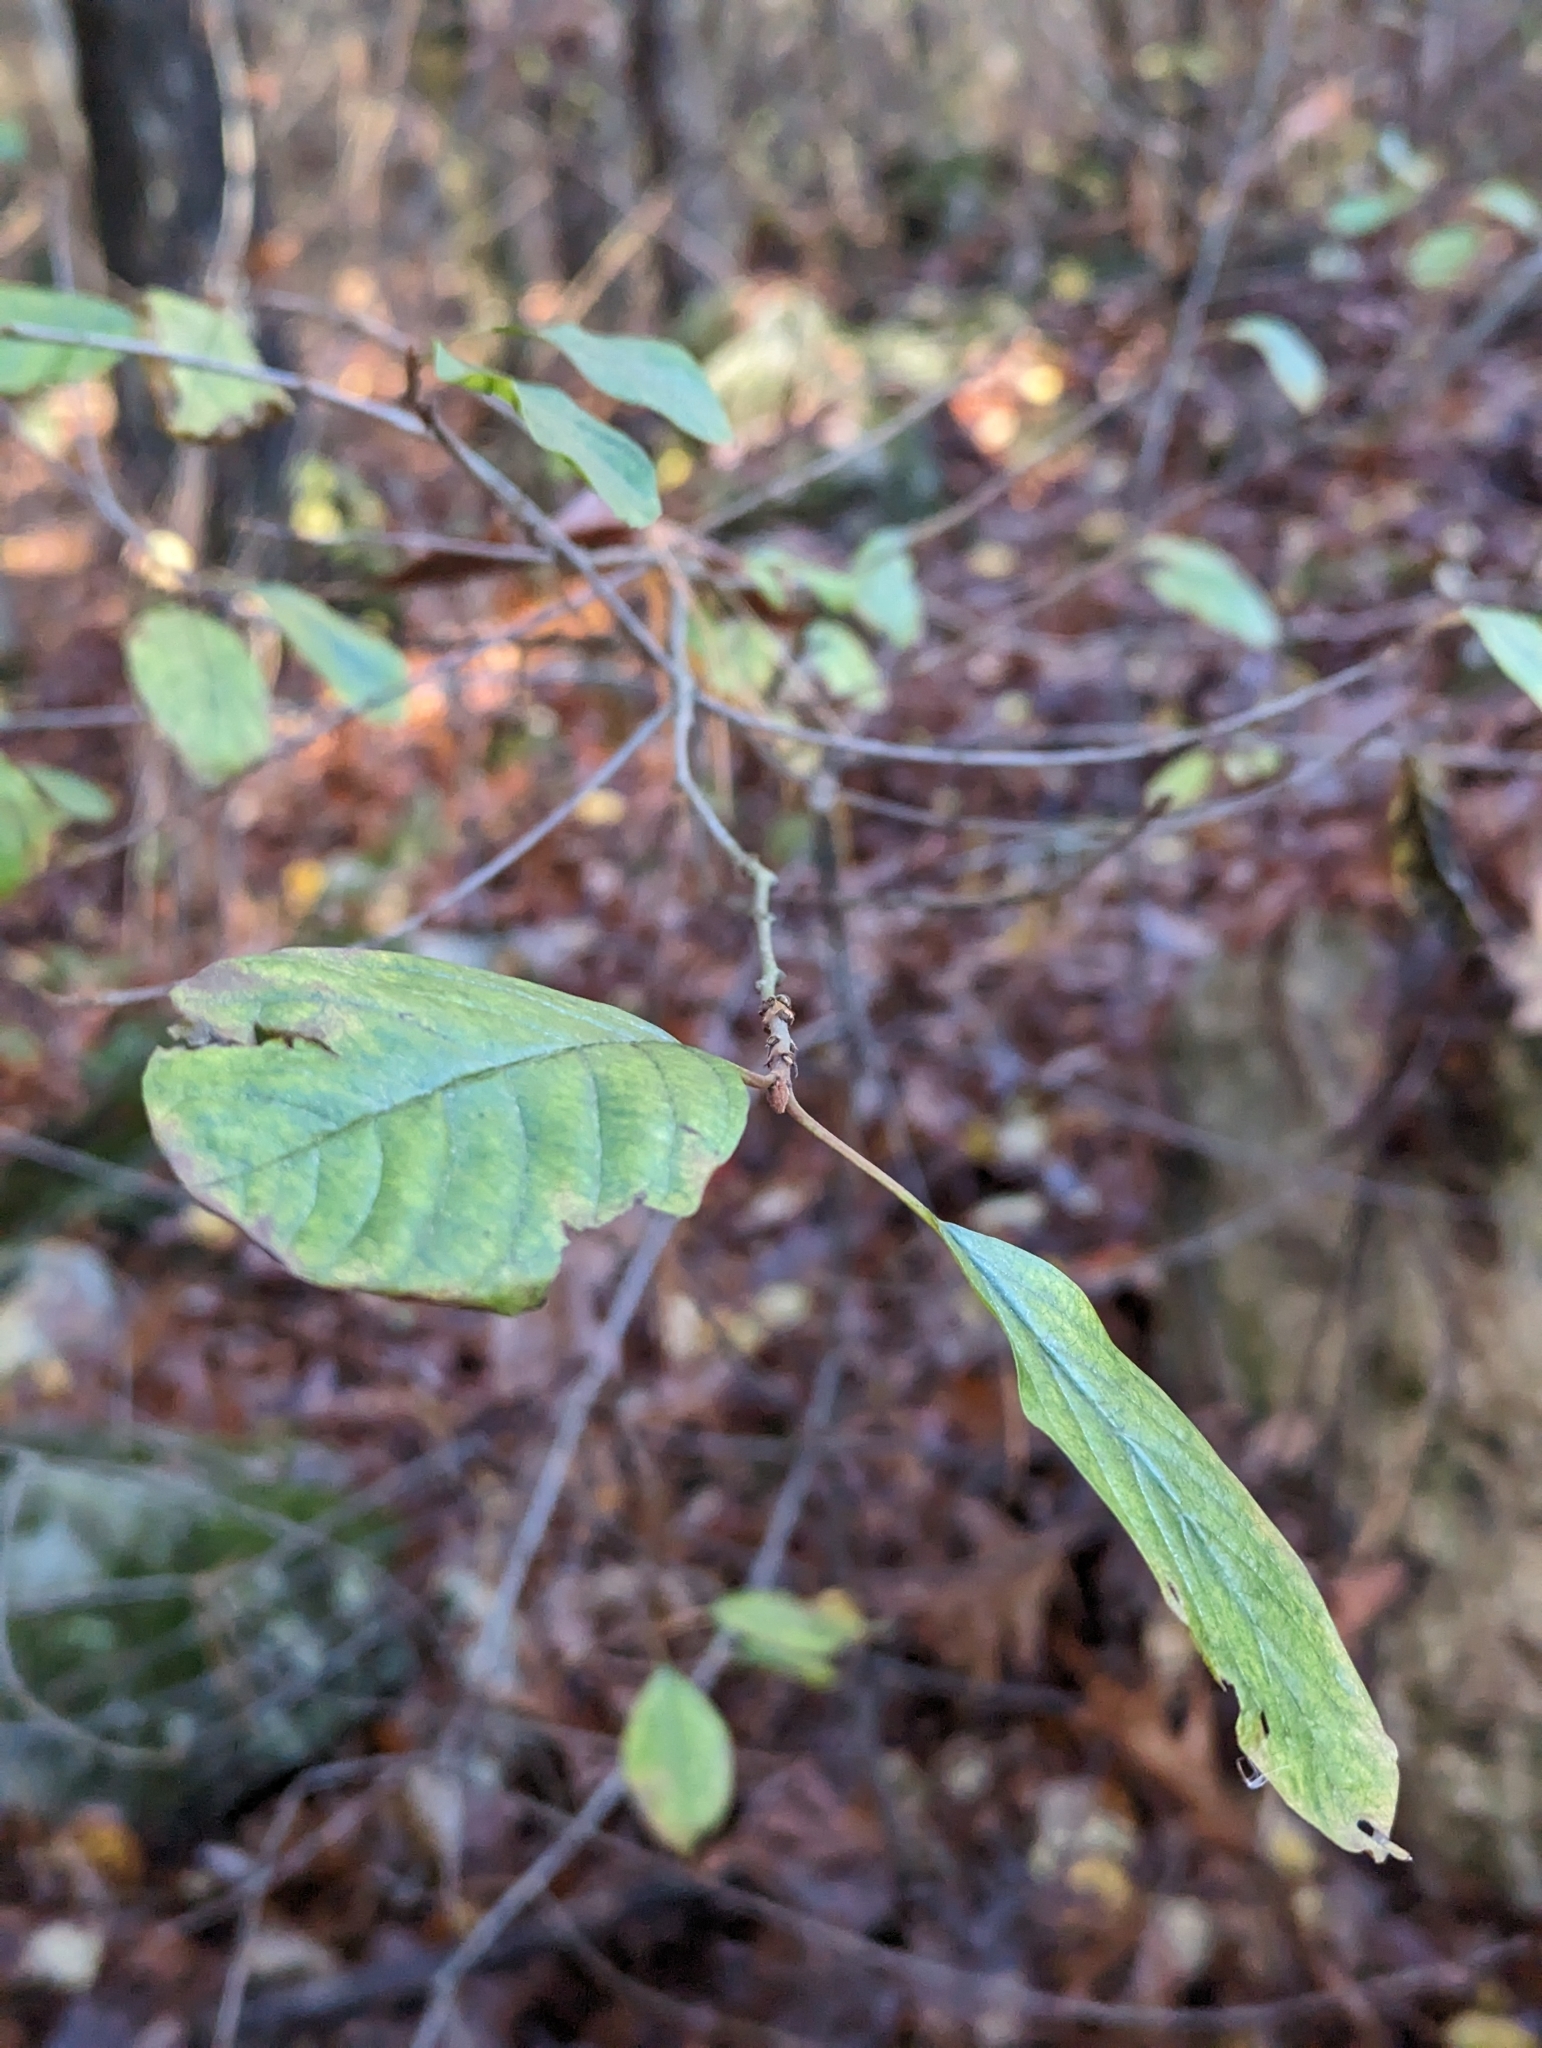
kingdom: Plantae
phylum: Tracheophyta
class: Magnoliopsida
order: Rosales
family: Rhamnaceae
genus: Frangula
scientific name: Frangula alnus
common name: Alder buckthorn
